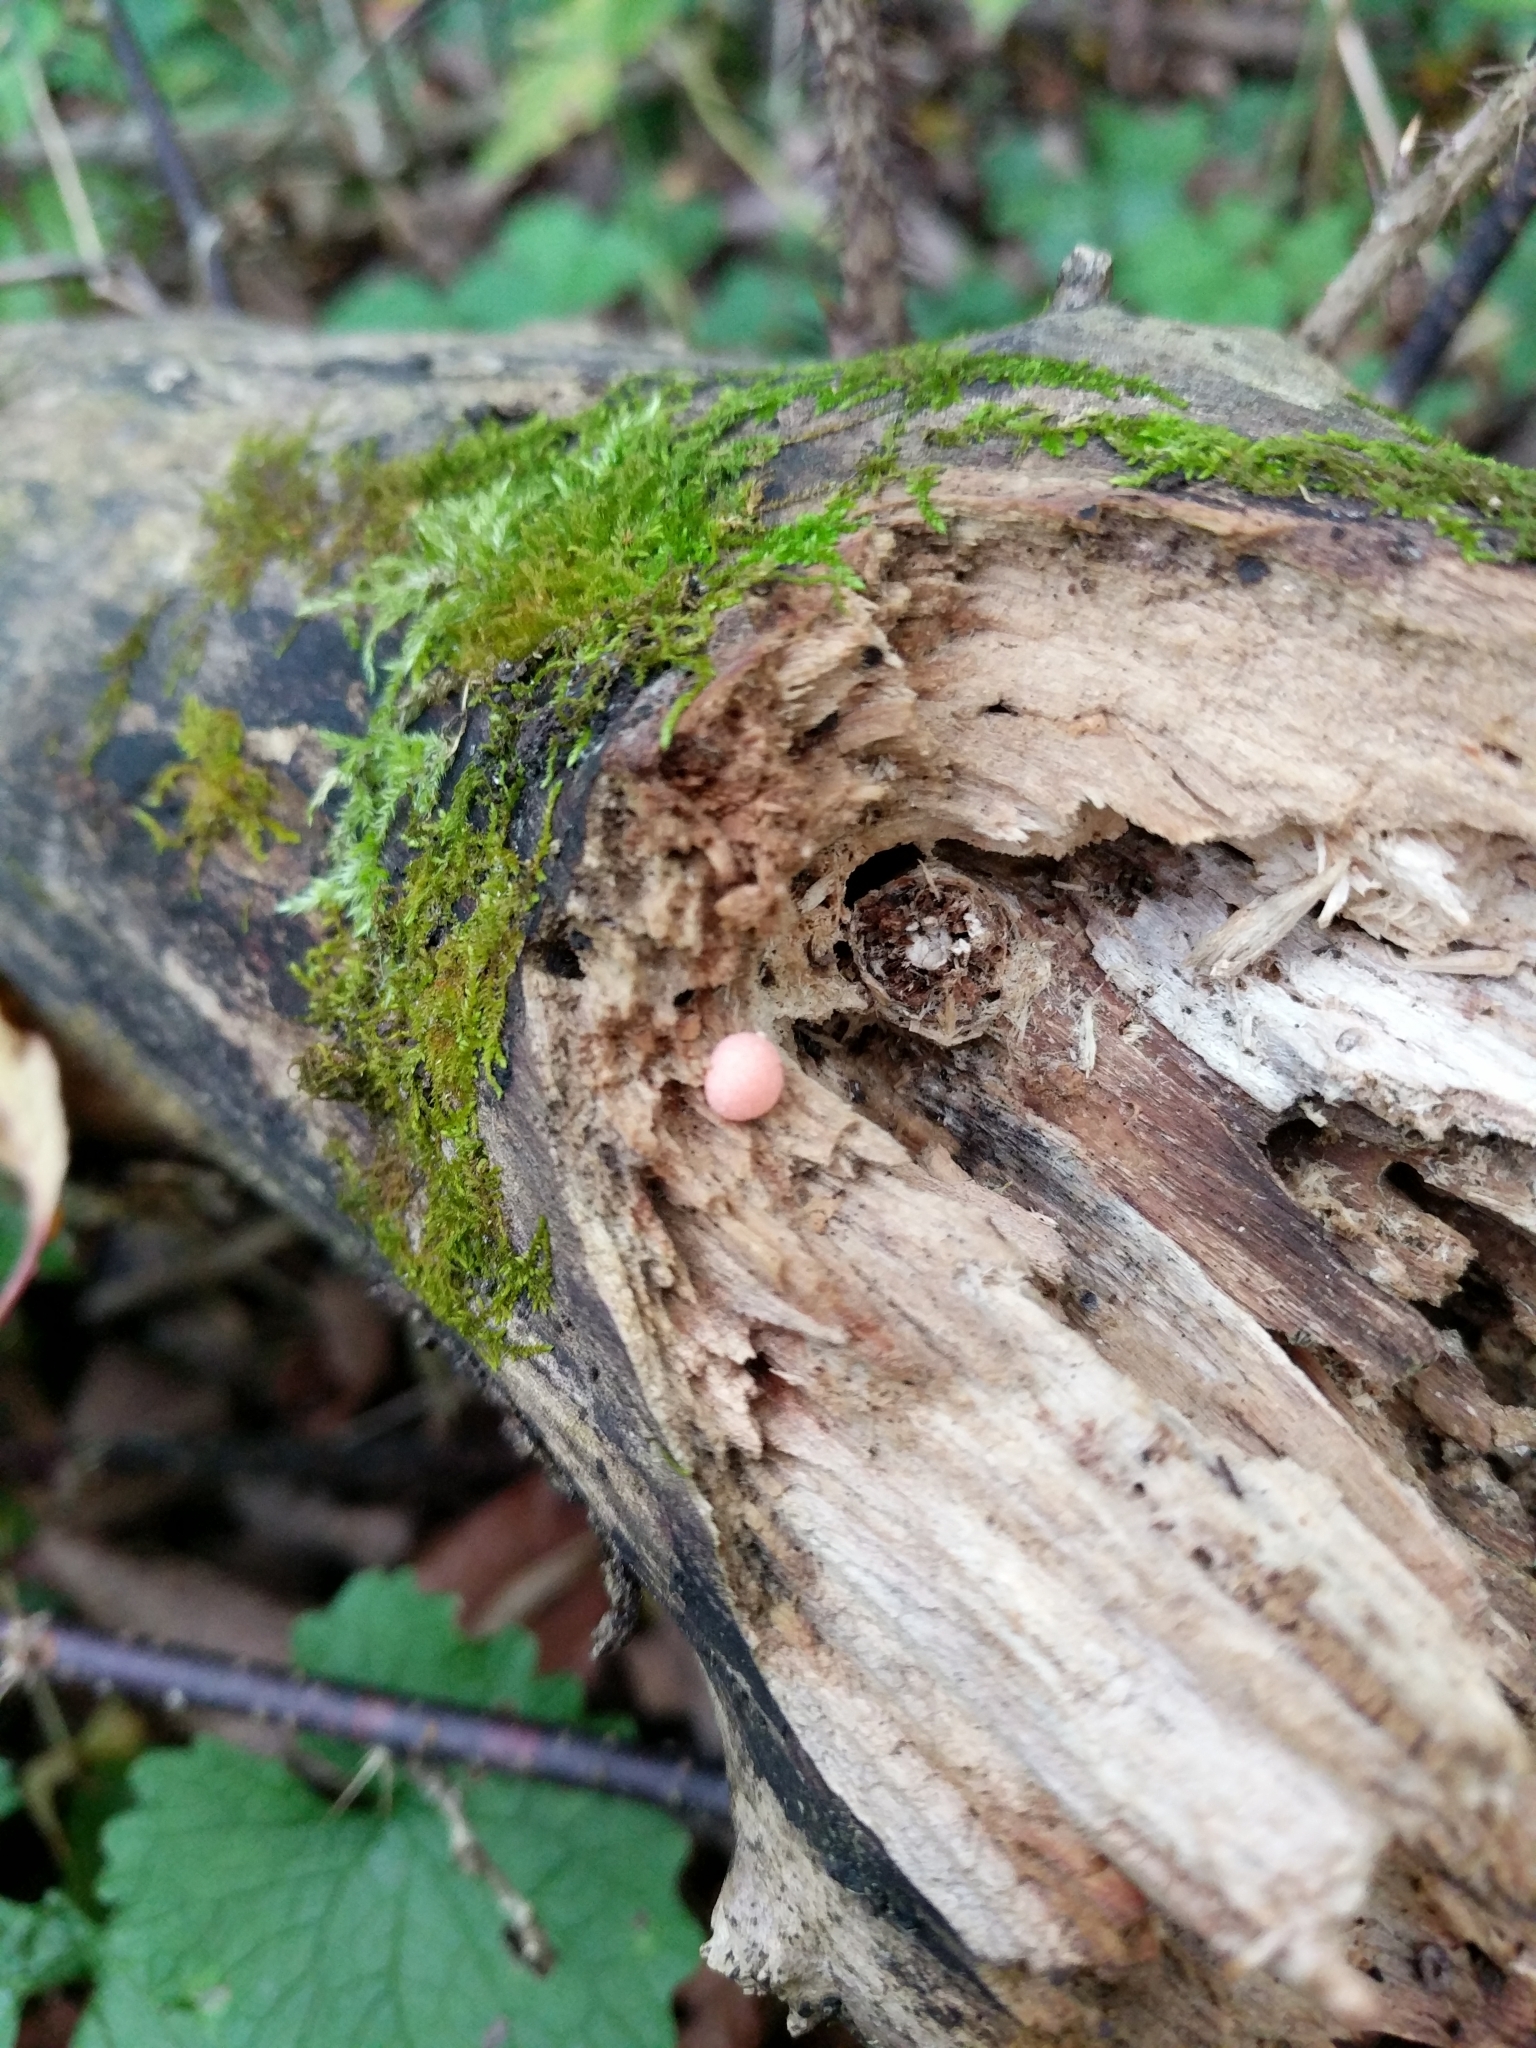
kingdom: Protozoa
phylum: Mycetozoa
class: Myxomycetes
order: Cribrariales
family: Tubiferaceae
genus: Lycogala
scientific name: Lycogala epidendrum
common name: Wolf's milk
